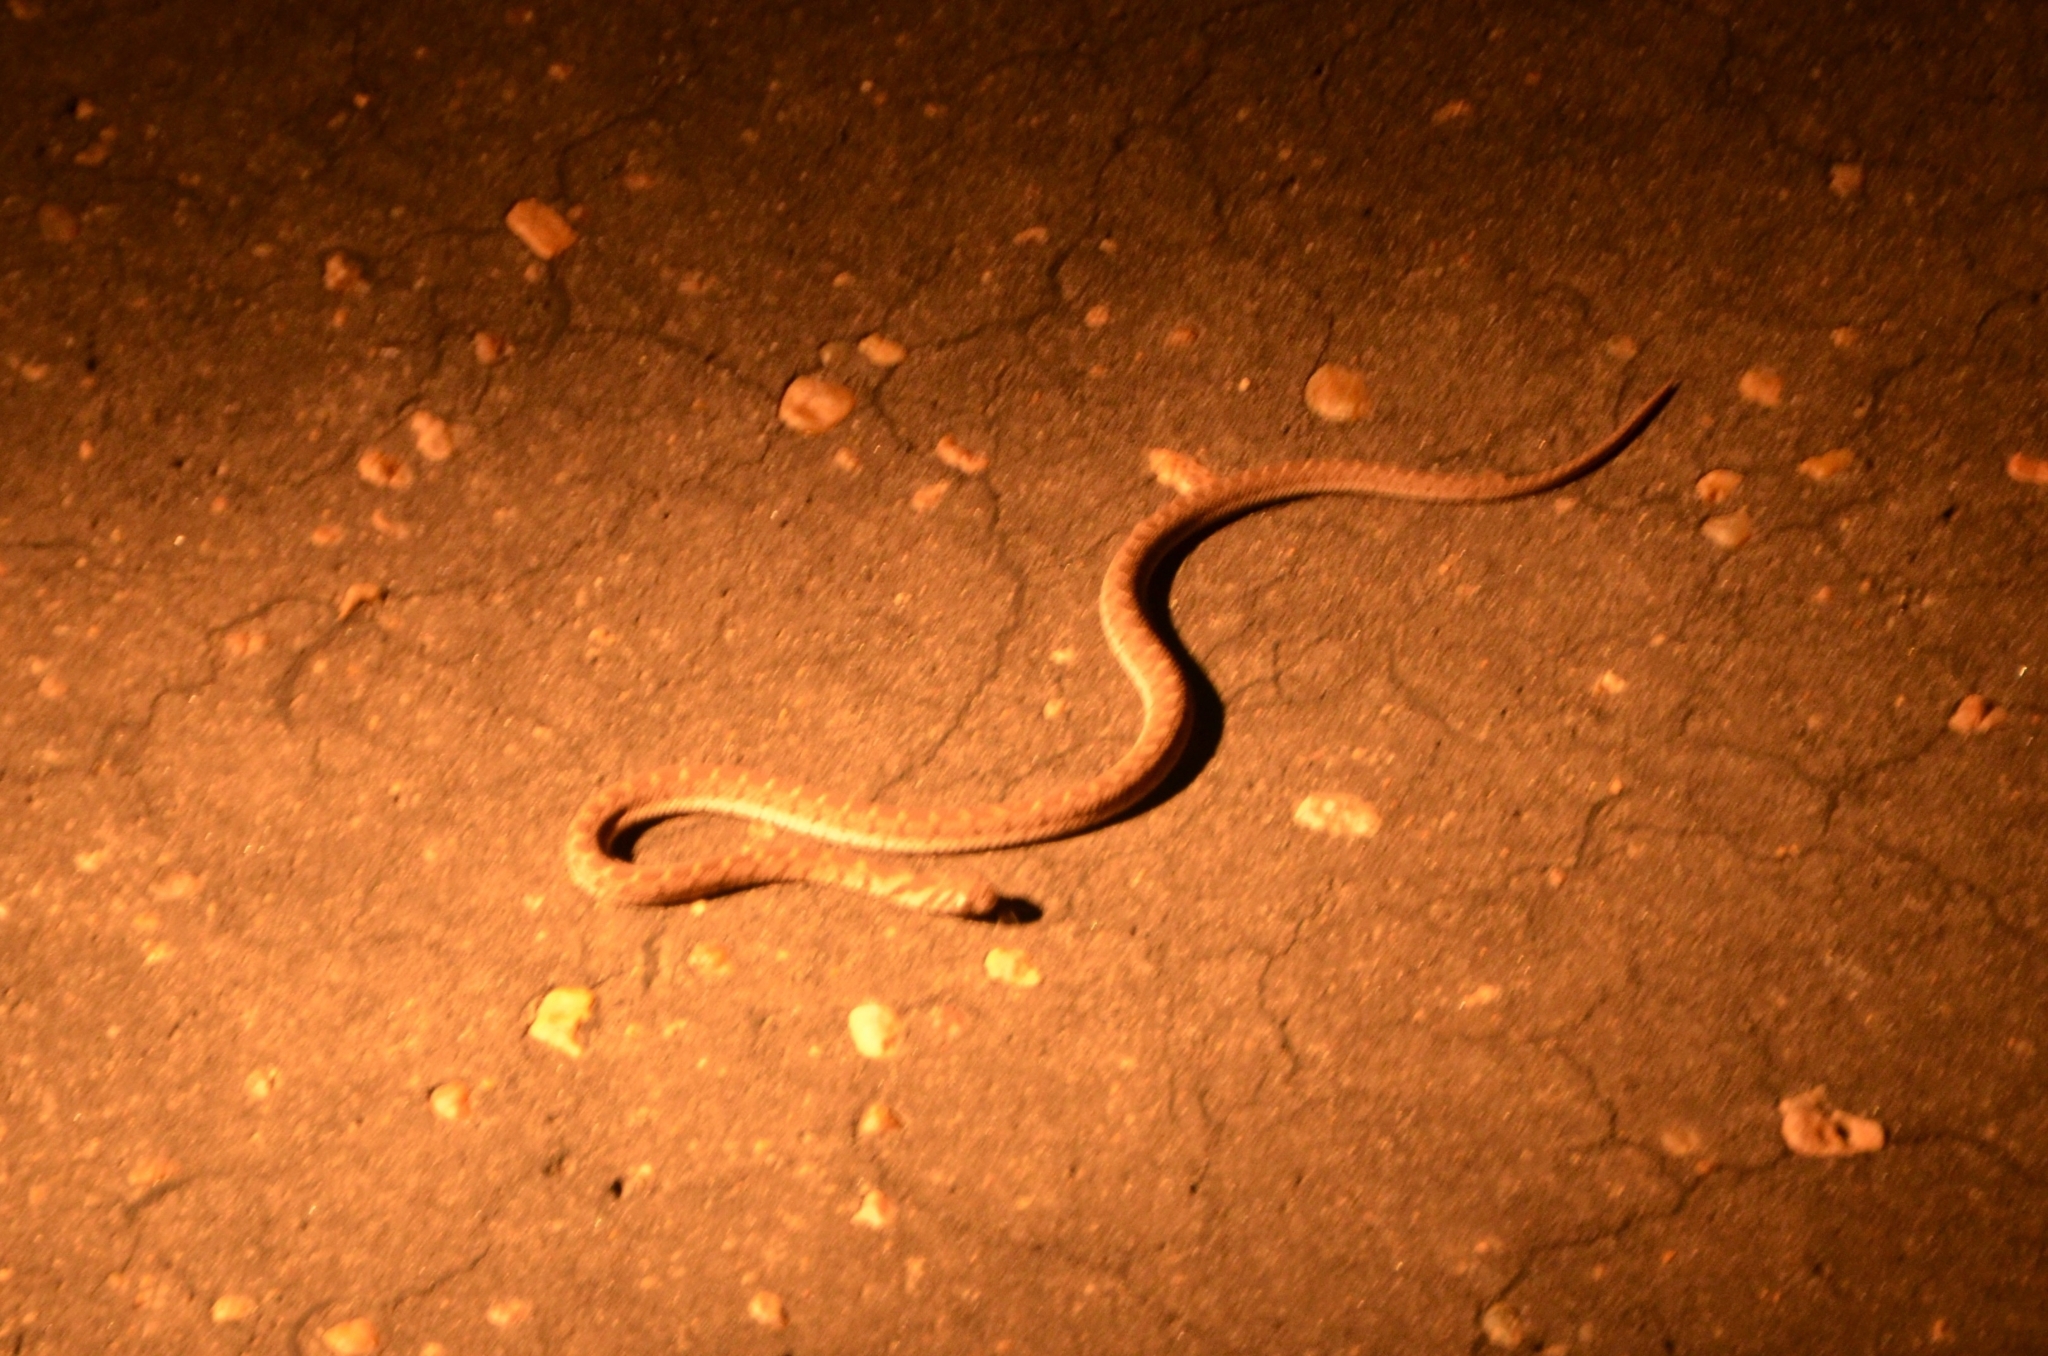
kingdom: Animalia
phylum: Chordata
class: Squamata
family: Colubridae
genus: Dasypeltis
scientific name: Dasypeltis scabra
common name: Common egg eater
